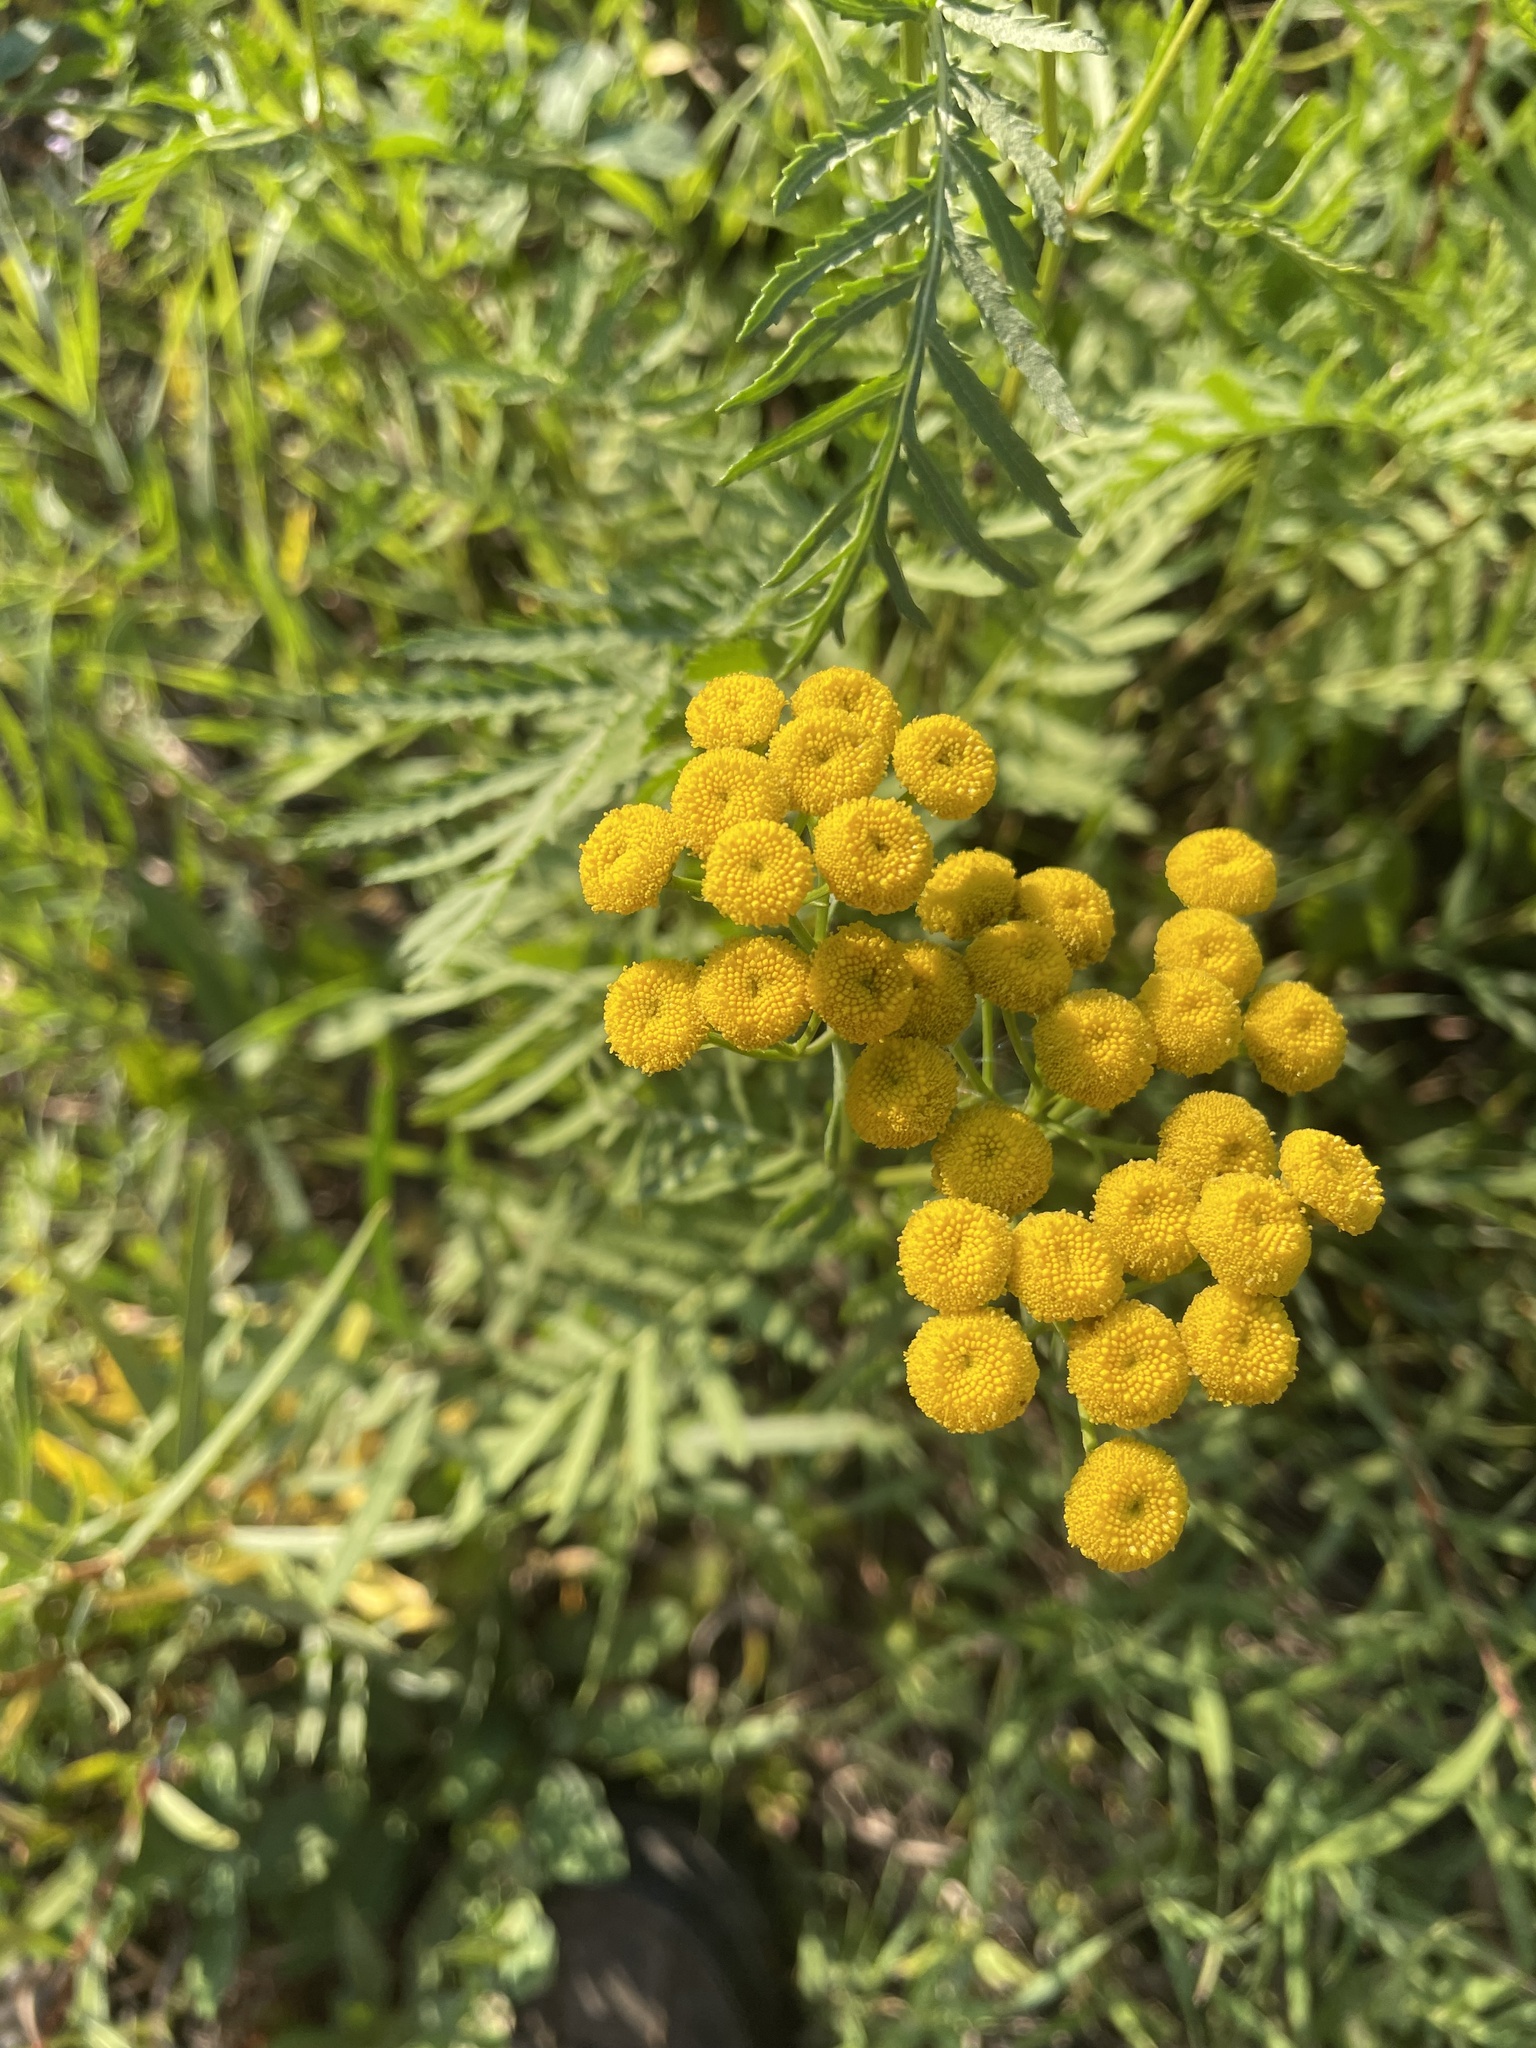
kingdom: Plantae
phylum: Tracheophyta
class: Magnoliopsida
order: Asterales
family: Asteraceae
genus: Tanacetum
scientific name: Tanacetum vulgare
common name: Common tansy
